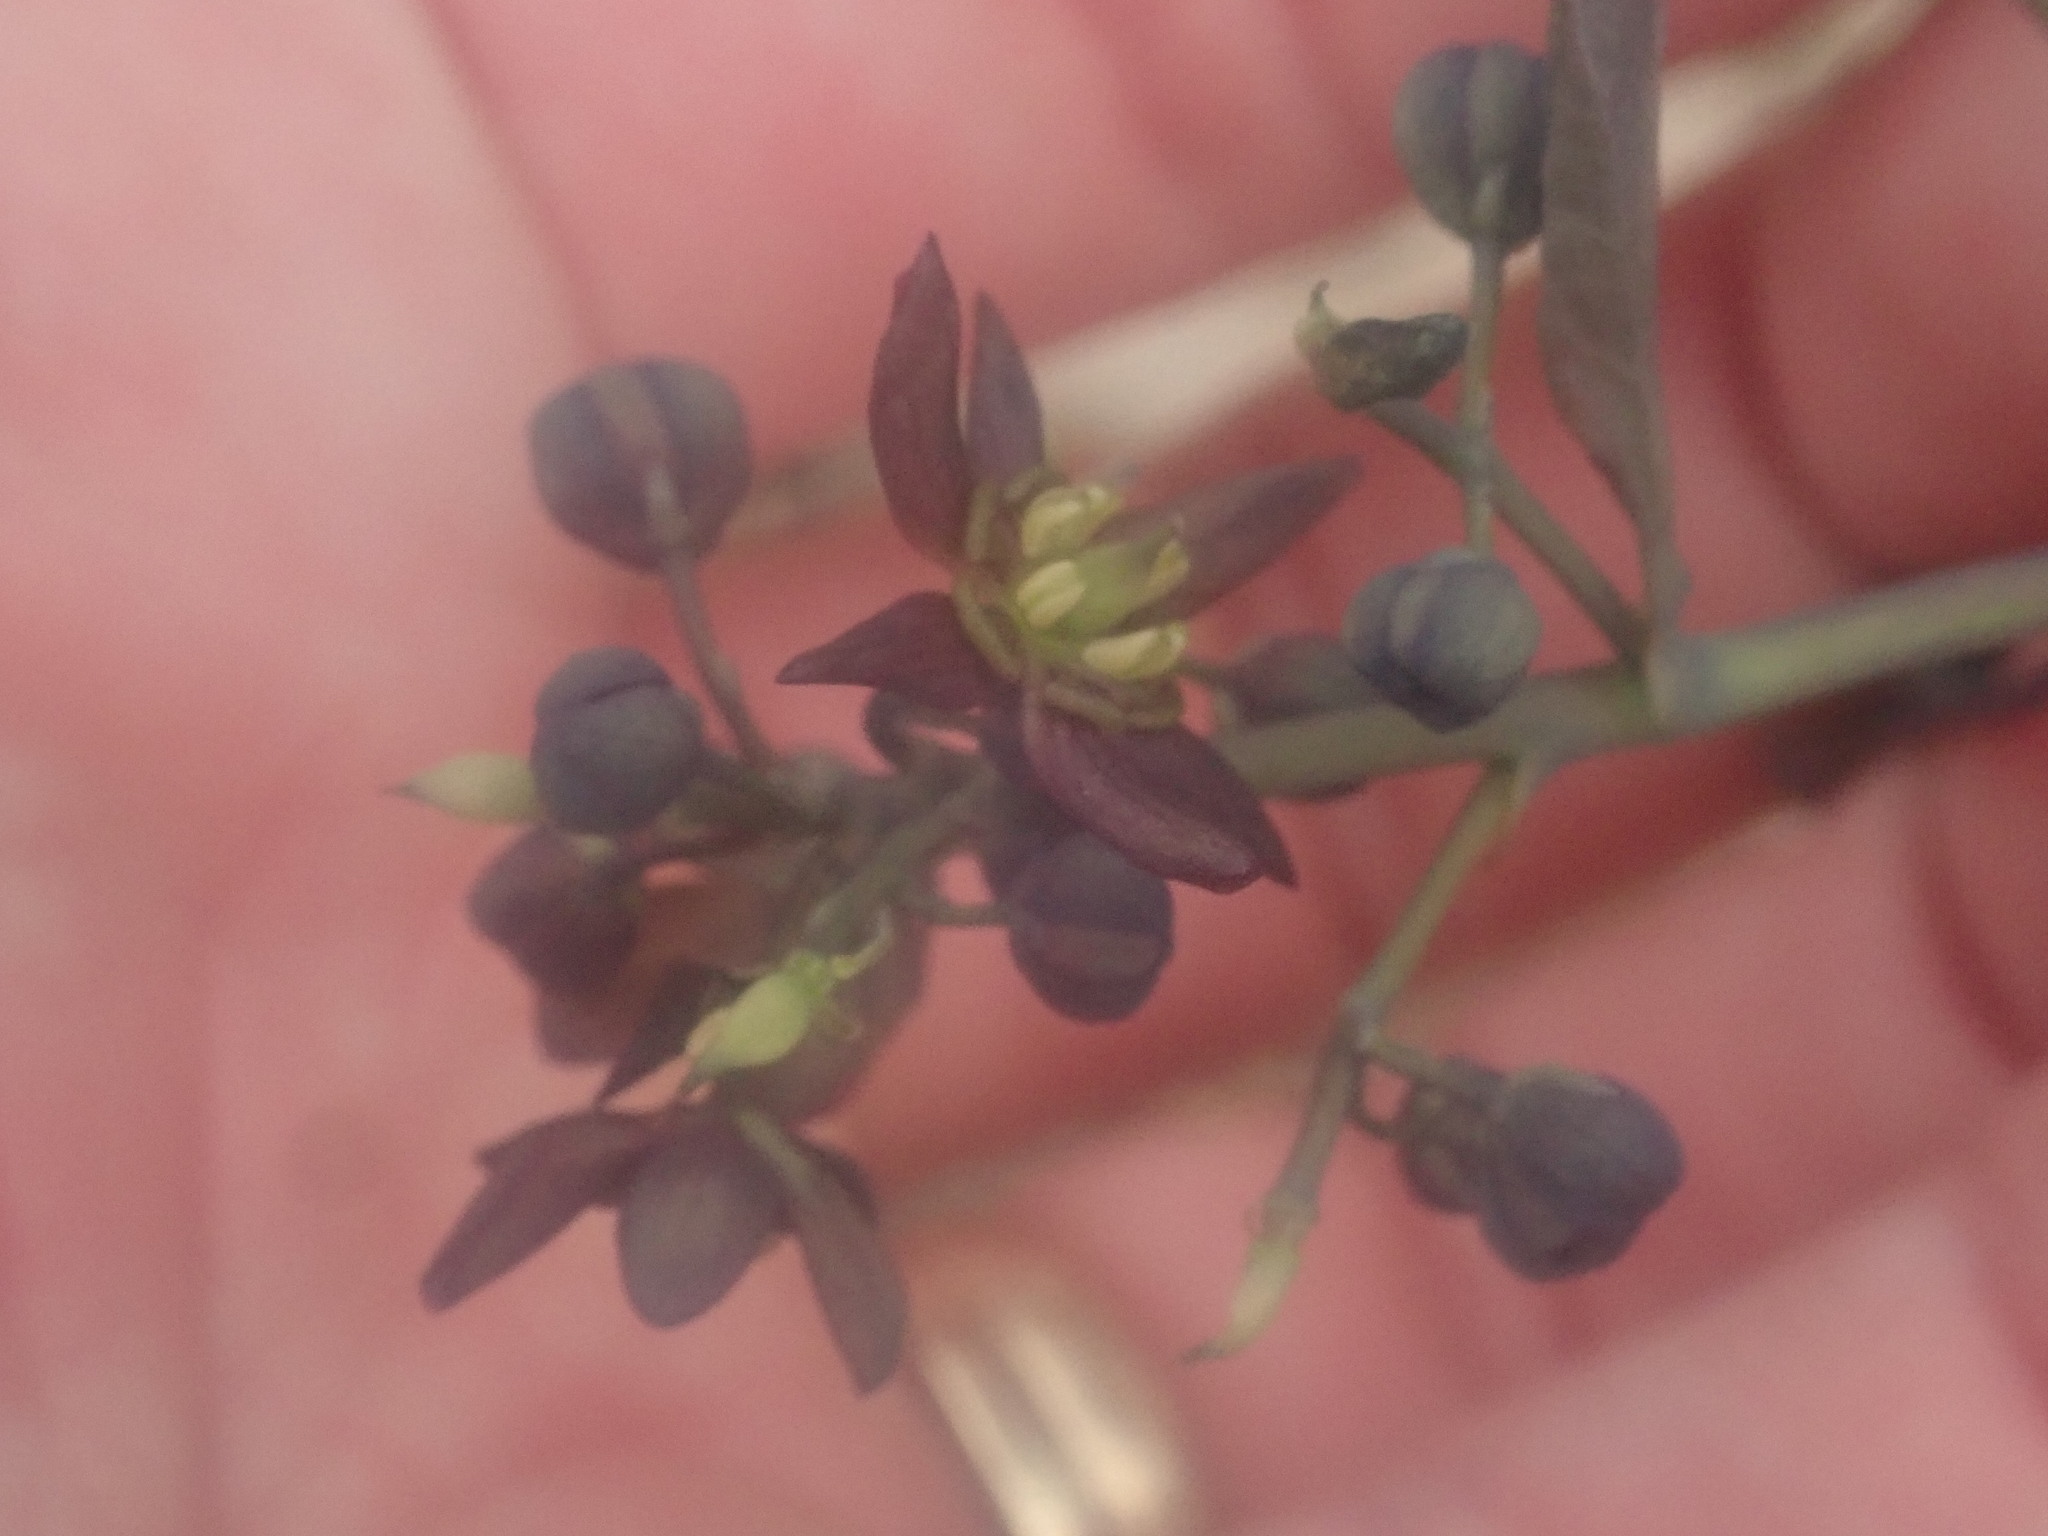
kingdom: Plantae
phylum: Tracheophyta
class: Magnoliopsida
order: Ranunculales
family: Berberidaceae
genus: Caulophyllum
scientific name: Caulophyllum giganteum
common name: Blue cohosh
